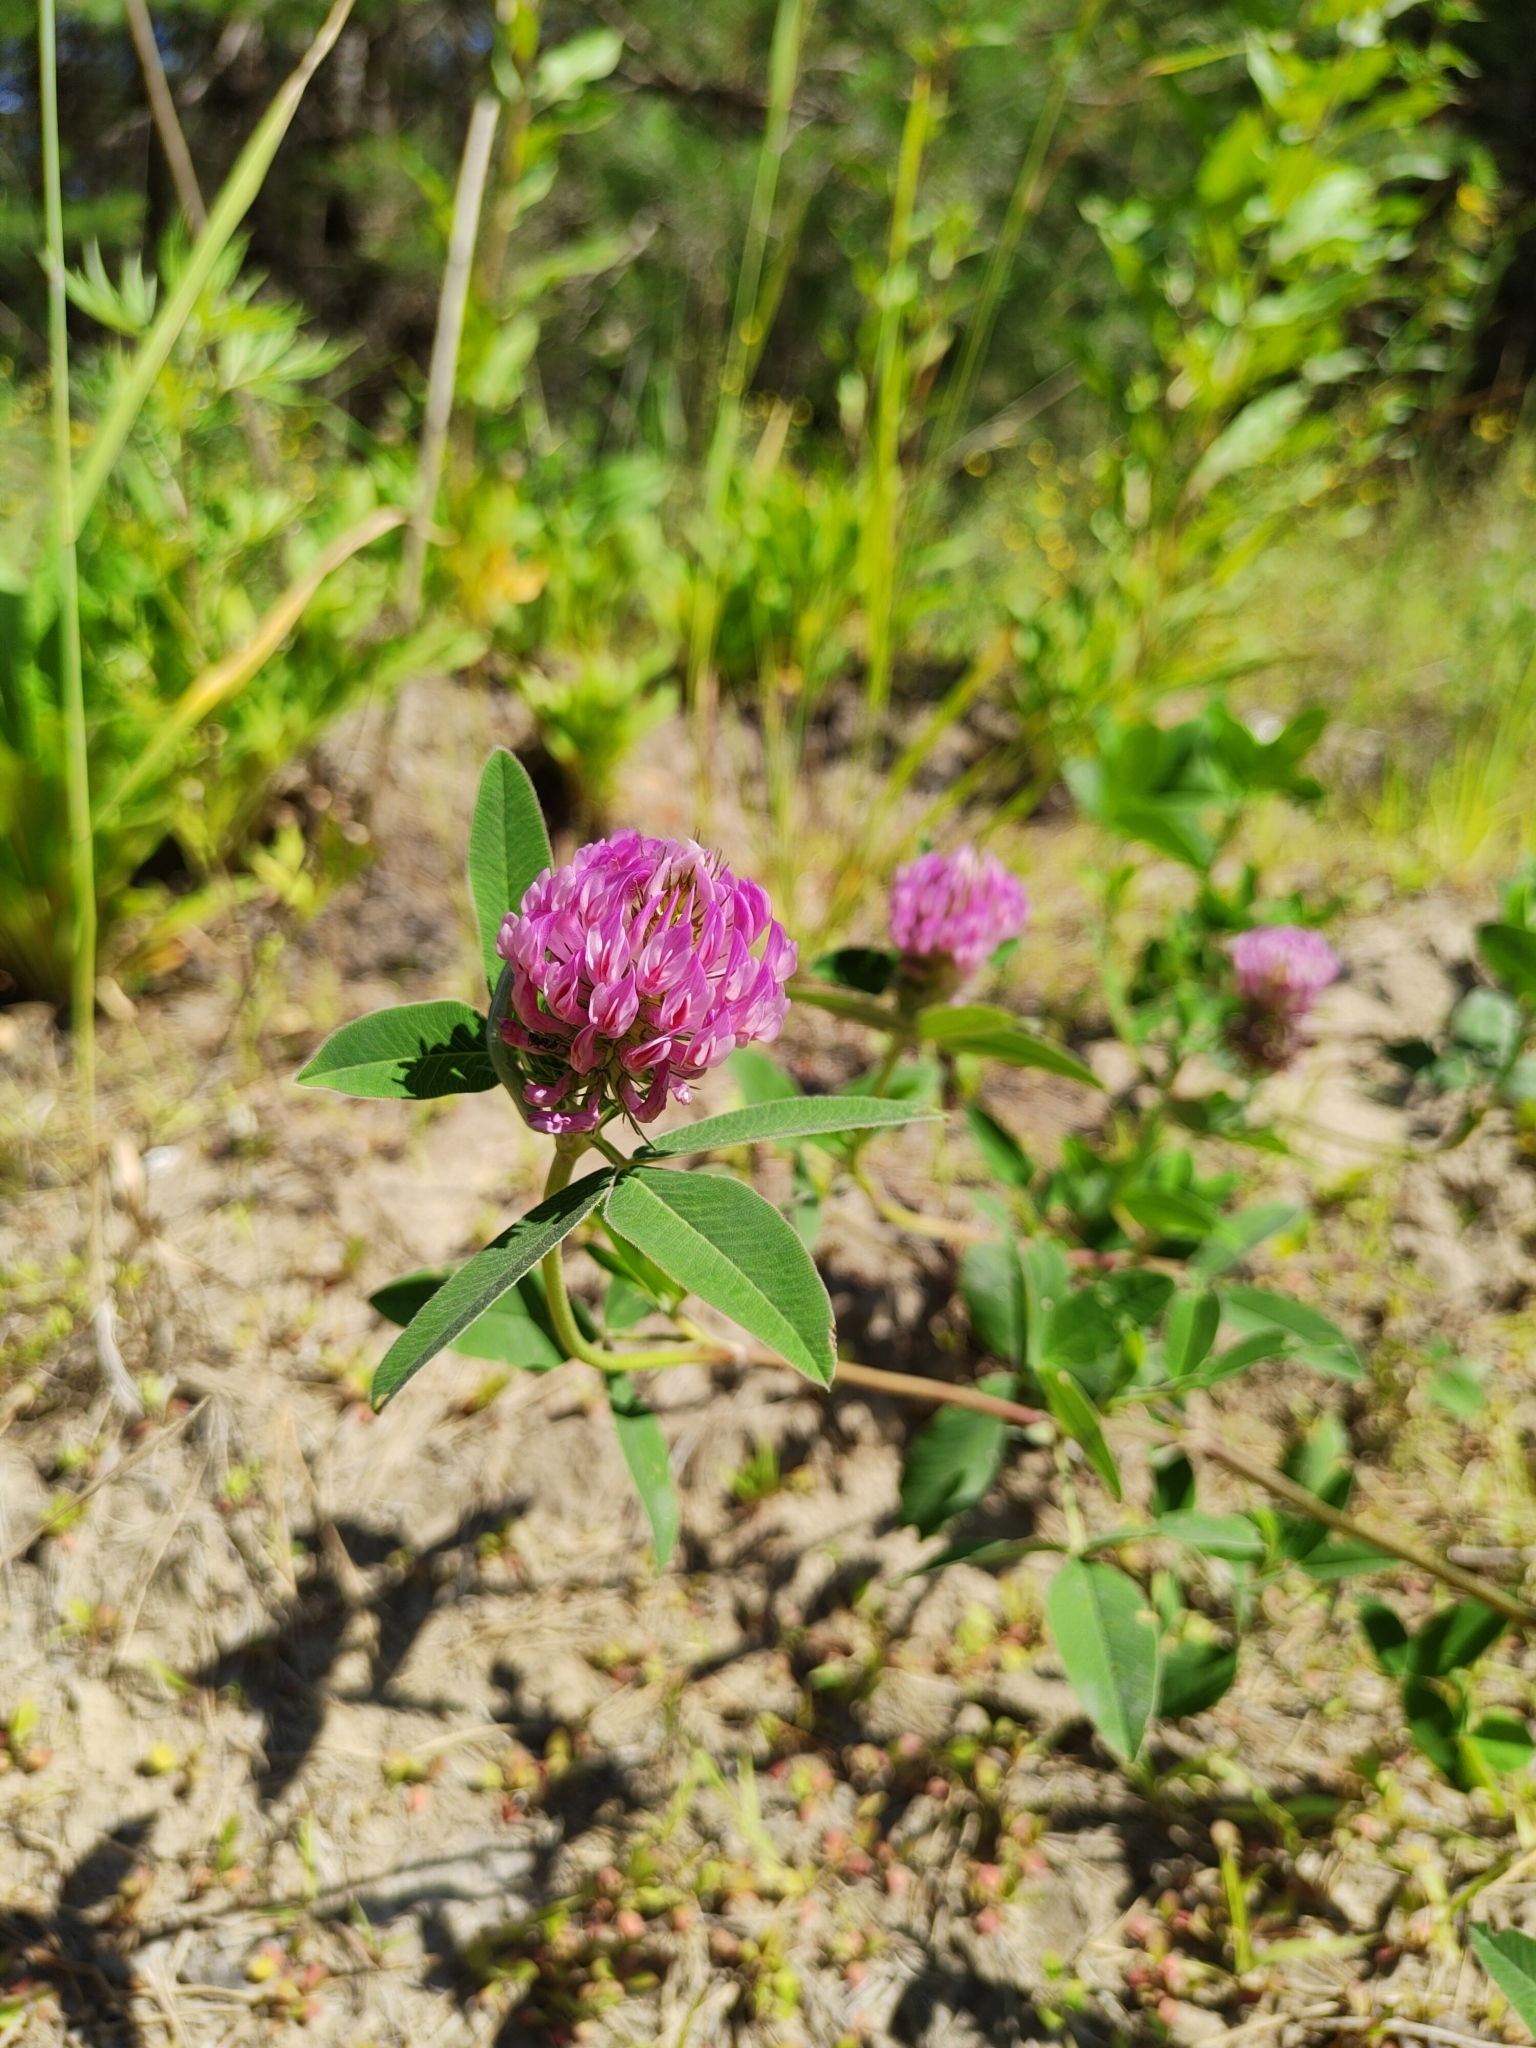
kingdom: Plantae
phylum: Tracheophyta
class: Magnoliopsida
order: Fabales
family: Fabaceae
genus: Trifolium
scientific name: Trifolium medium
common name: Zigzag clover
